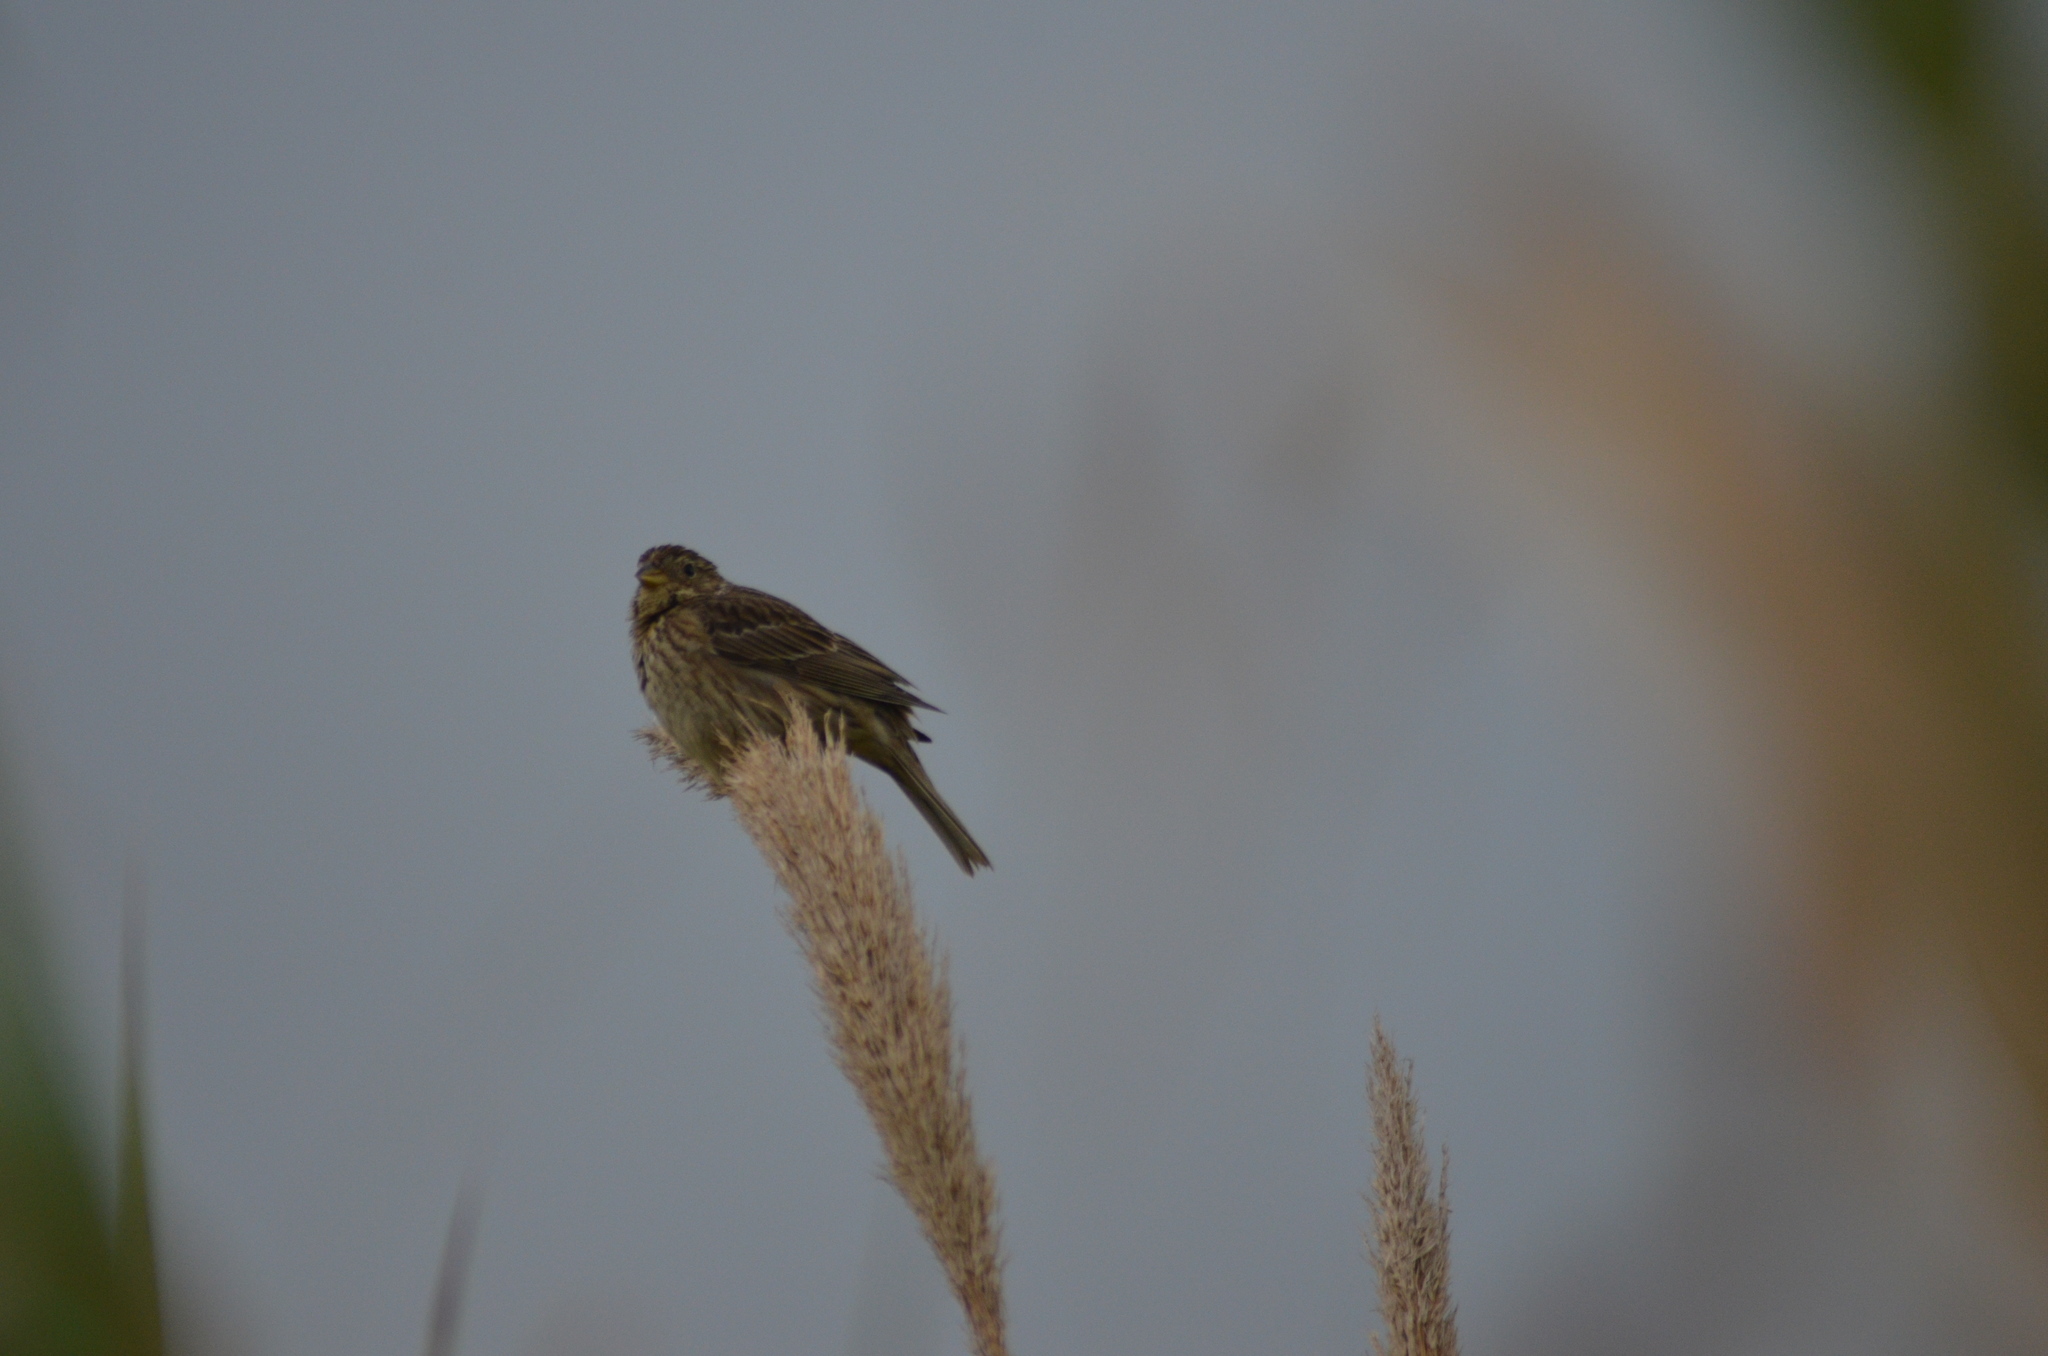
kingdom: Animalia
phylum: Chordata
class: Aves
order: Passeriformes
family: Emberizidae
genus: Emberiza
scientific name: Emberiza calandra
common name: Corn bunting
